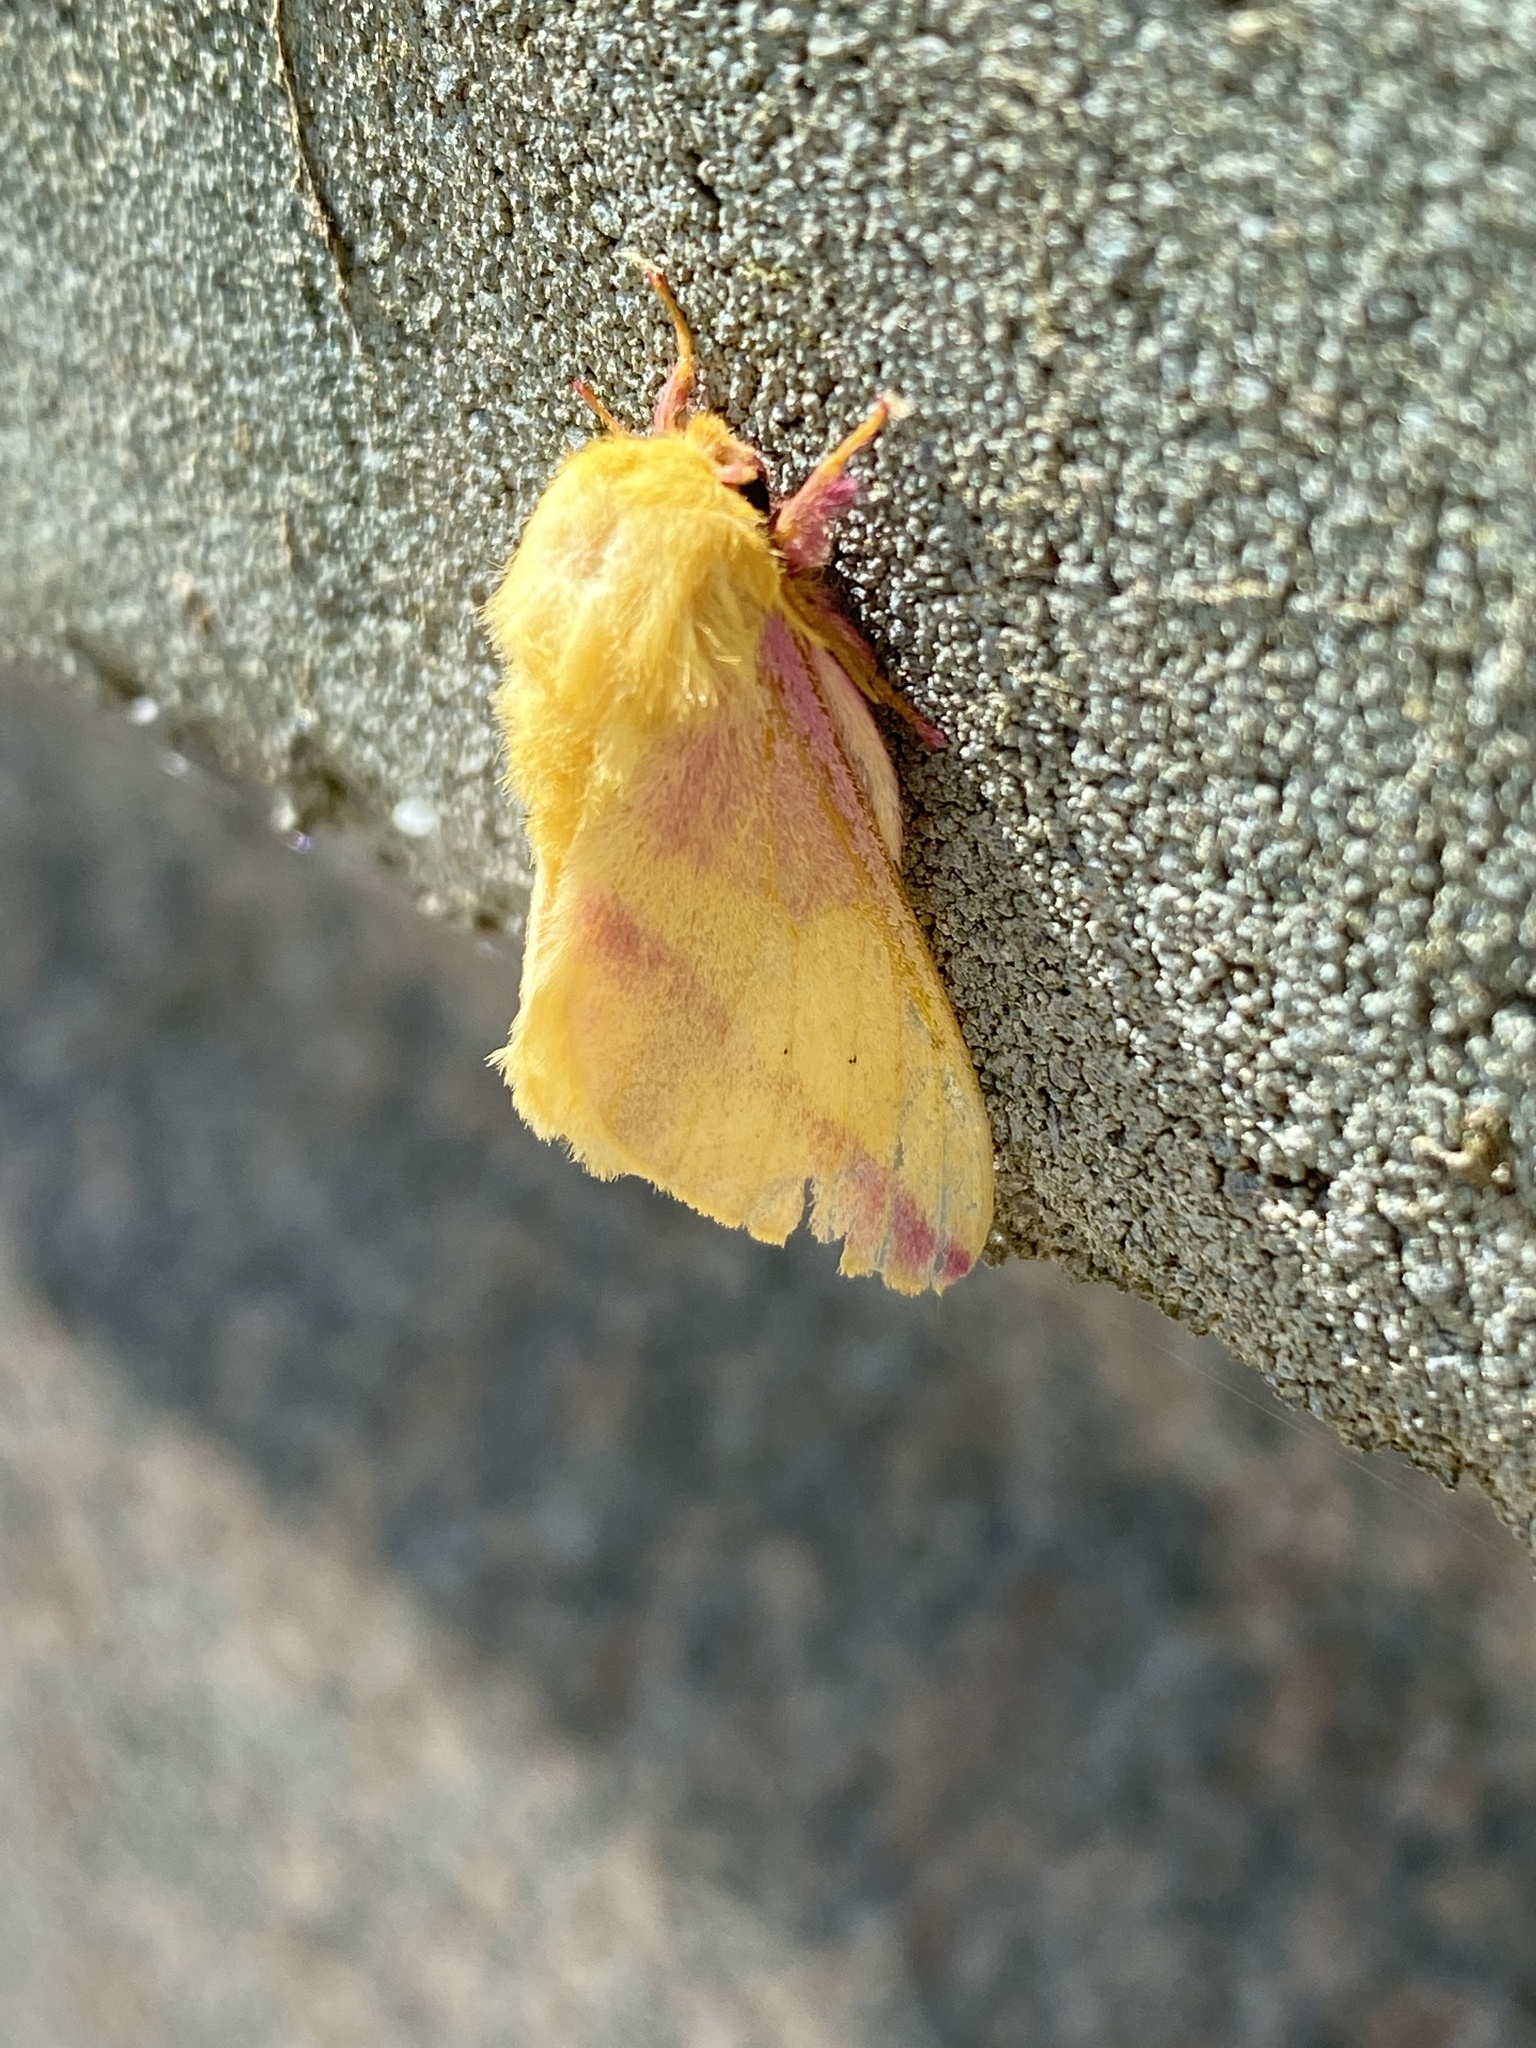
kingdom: Animalia
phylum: Arthropoda
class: Insecta
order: Lepidoptera
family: Saturniidae
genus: Dryocampa
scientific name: Dryocampa rubicunda
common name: Rosy maple moth
